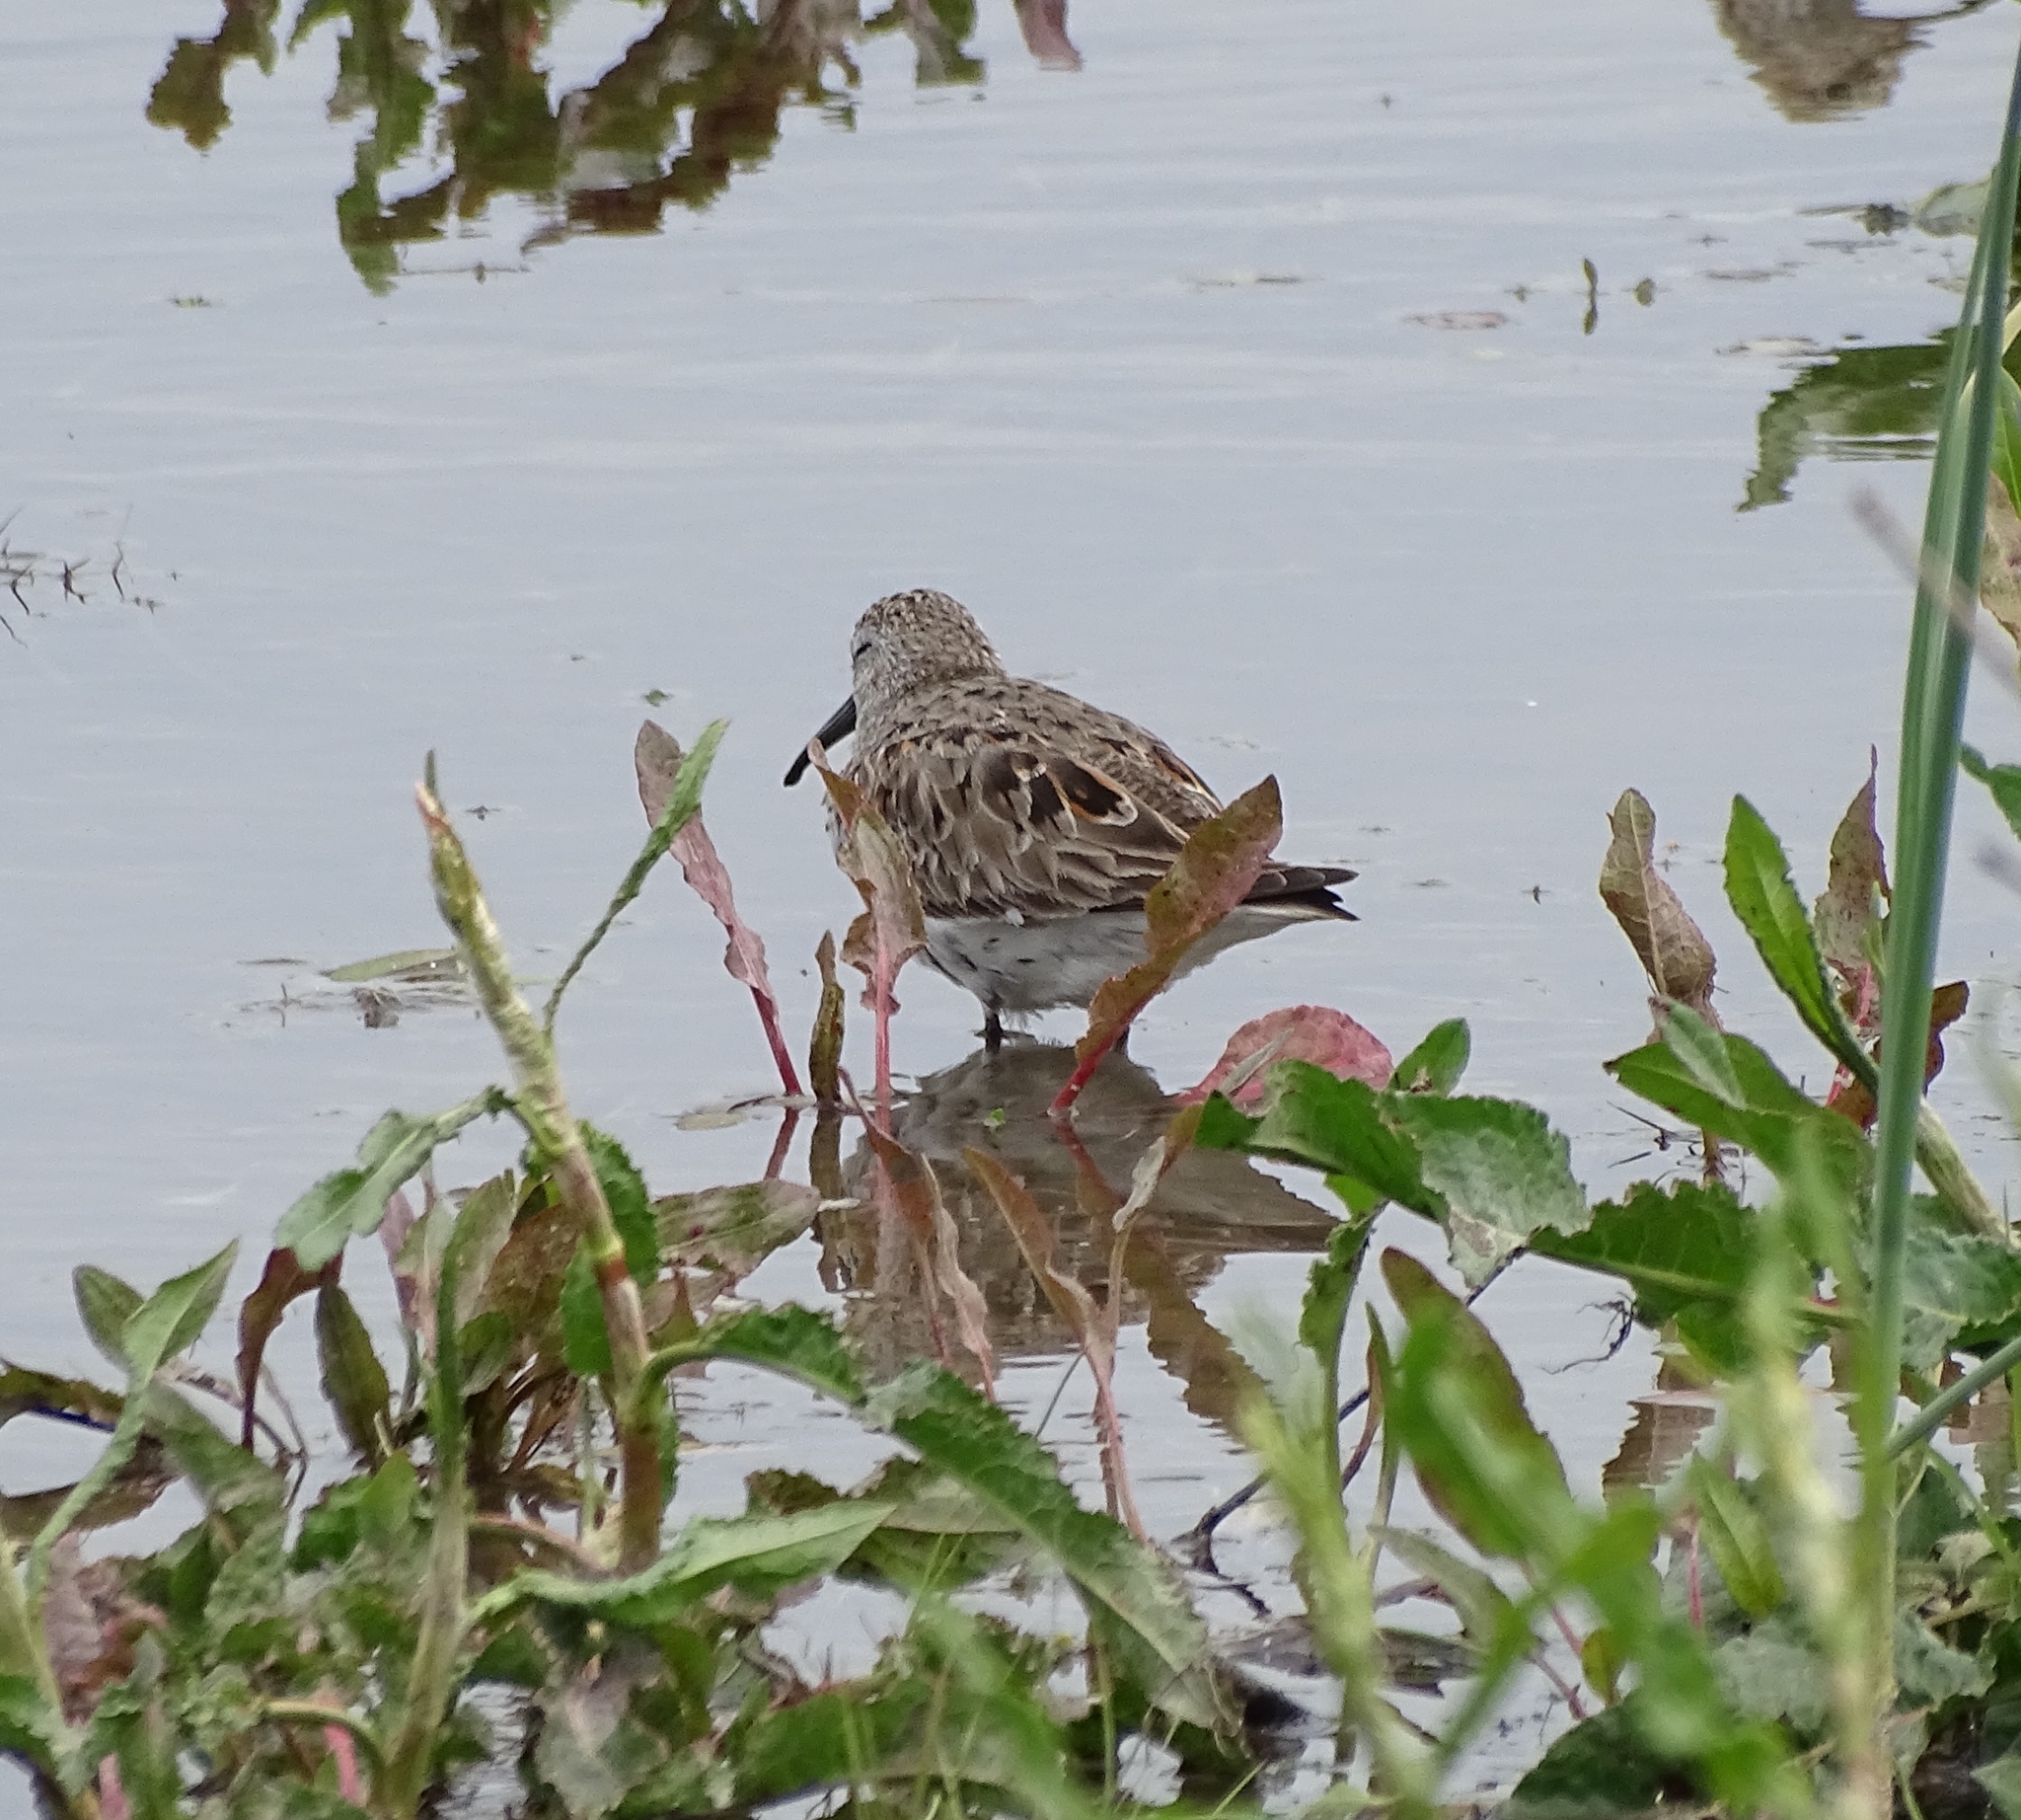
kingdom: Animalia
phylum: Chordata
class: Aves
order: Charadriiformes
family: Scolopacidae
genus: Calidris
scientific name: Calidris alpina
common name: Dunlin
